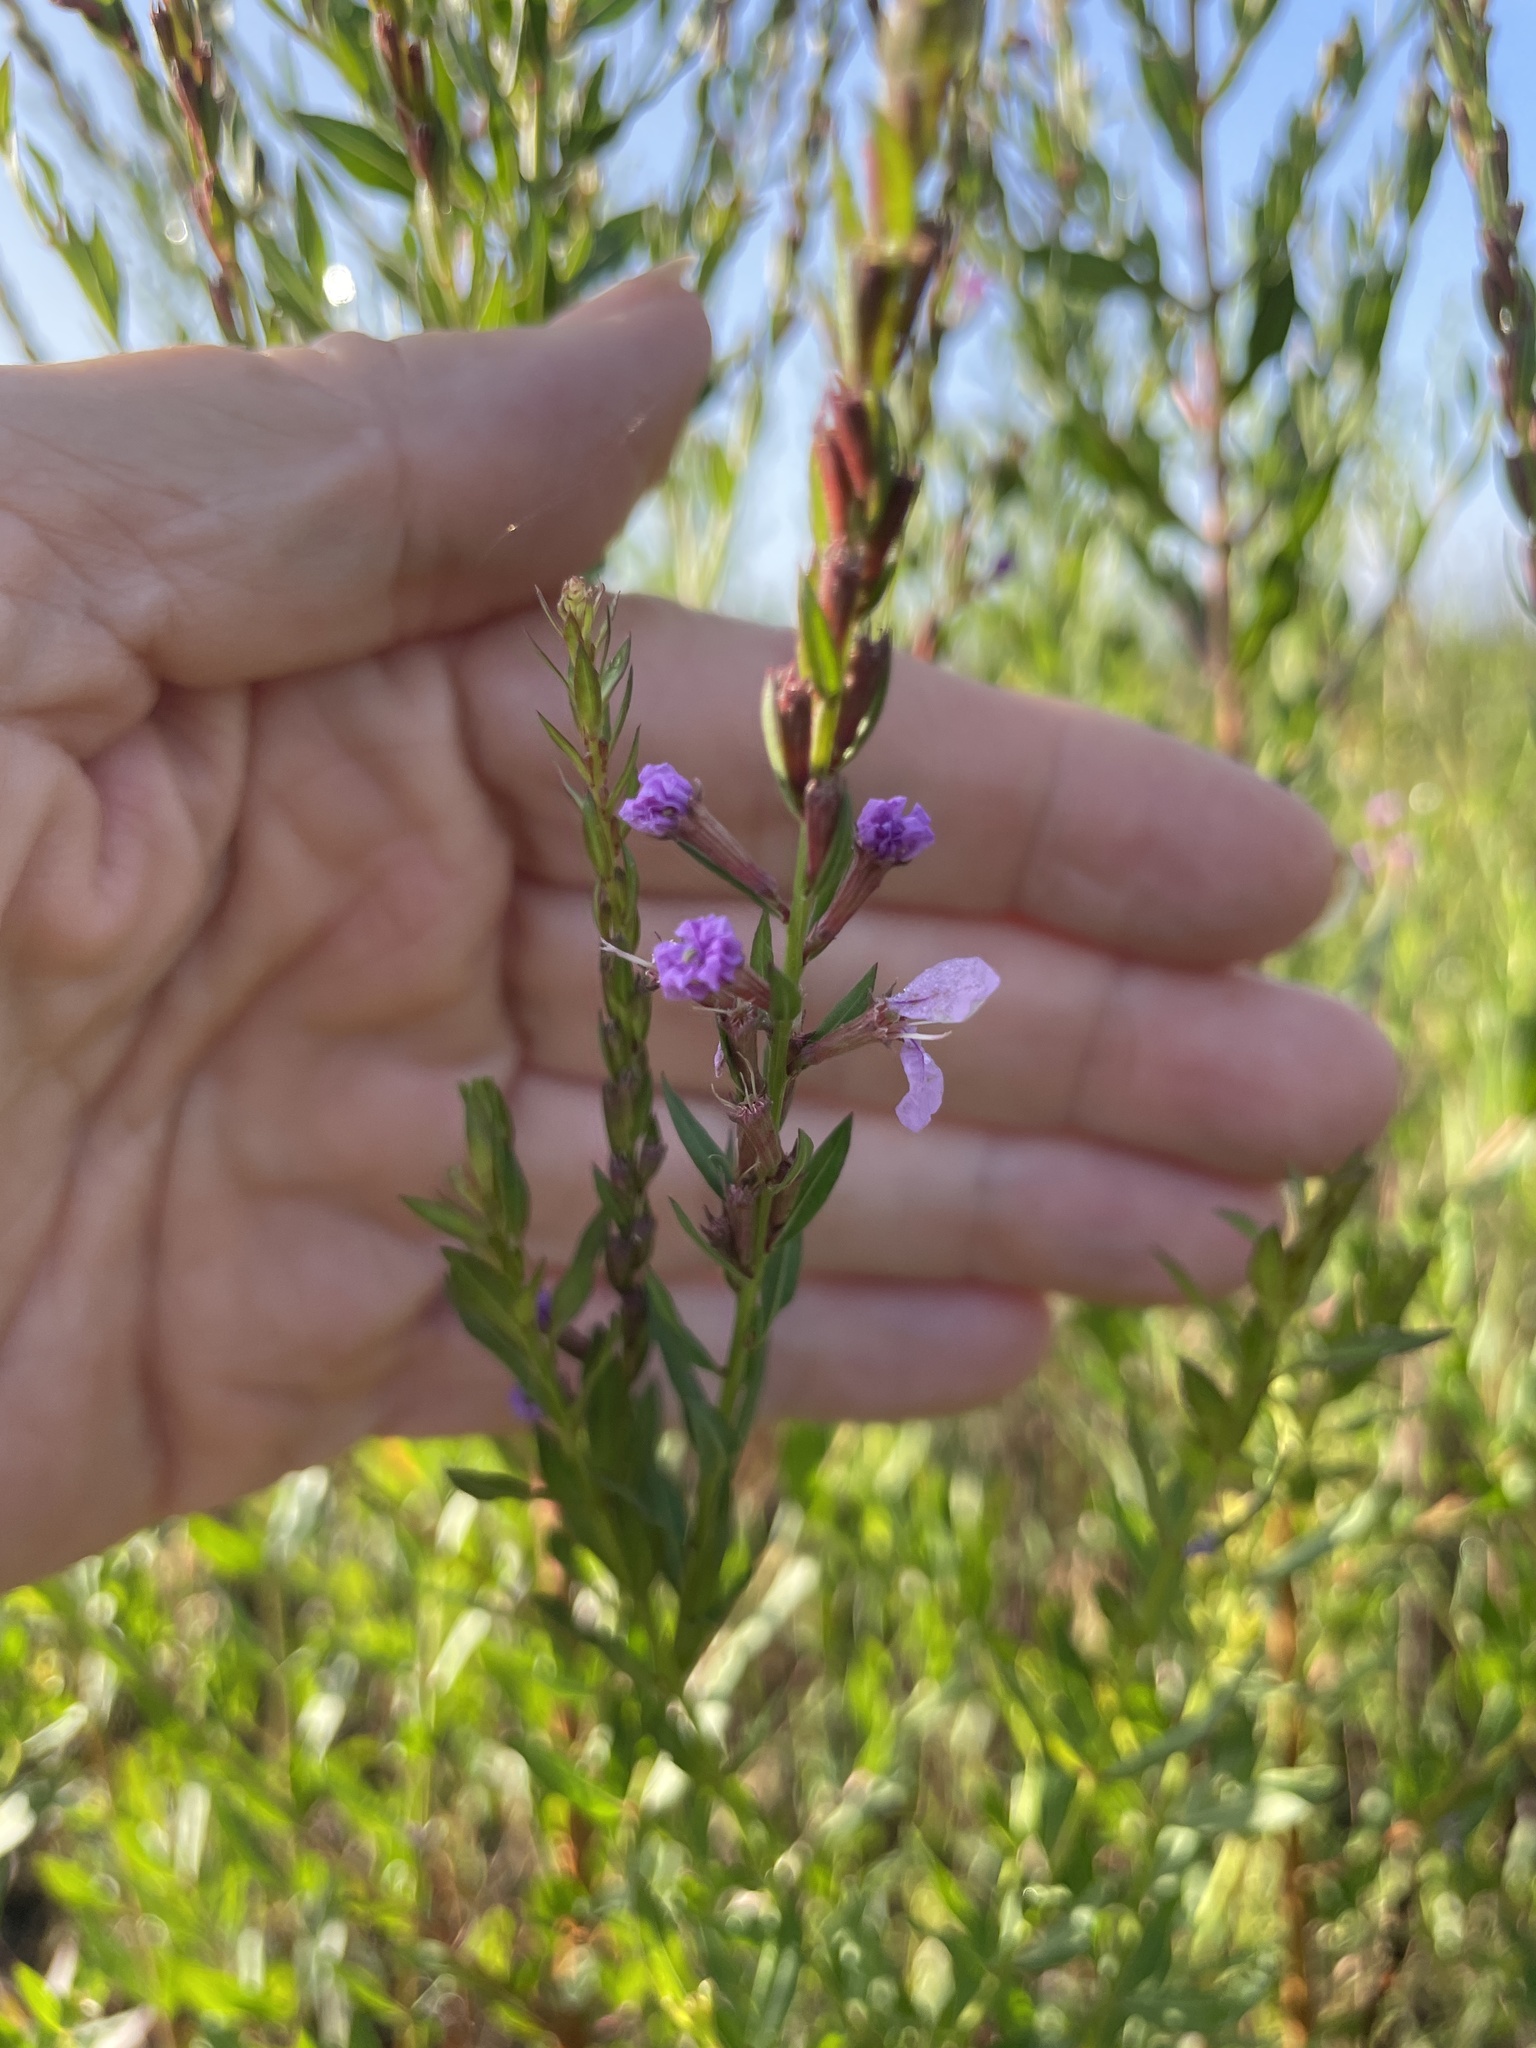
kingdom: Plantae
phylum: Tracheophyta
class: Magnoliopsida
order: Myrtales
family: Lythraceae
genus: Lythrum
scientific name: Lythrum alatum
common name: Winged loosestrife
